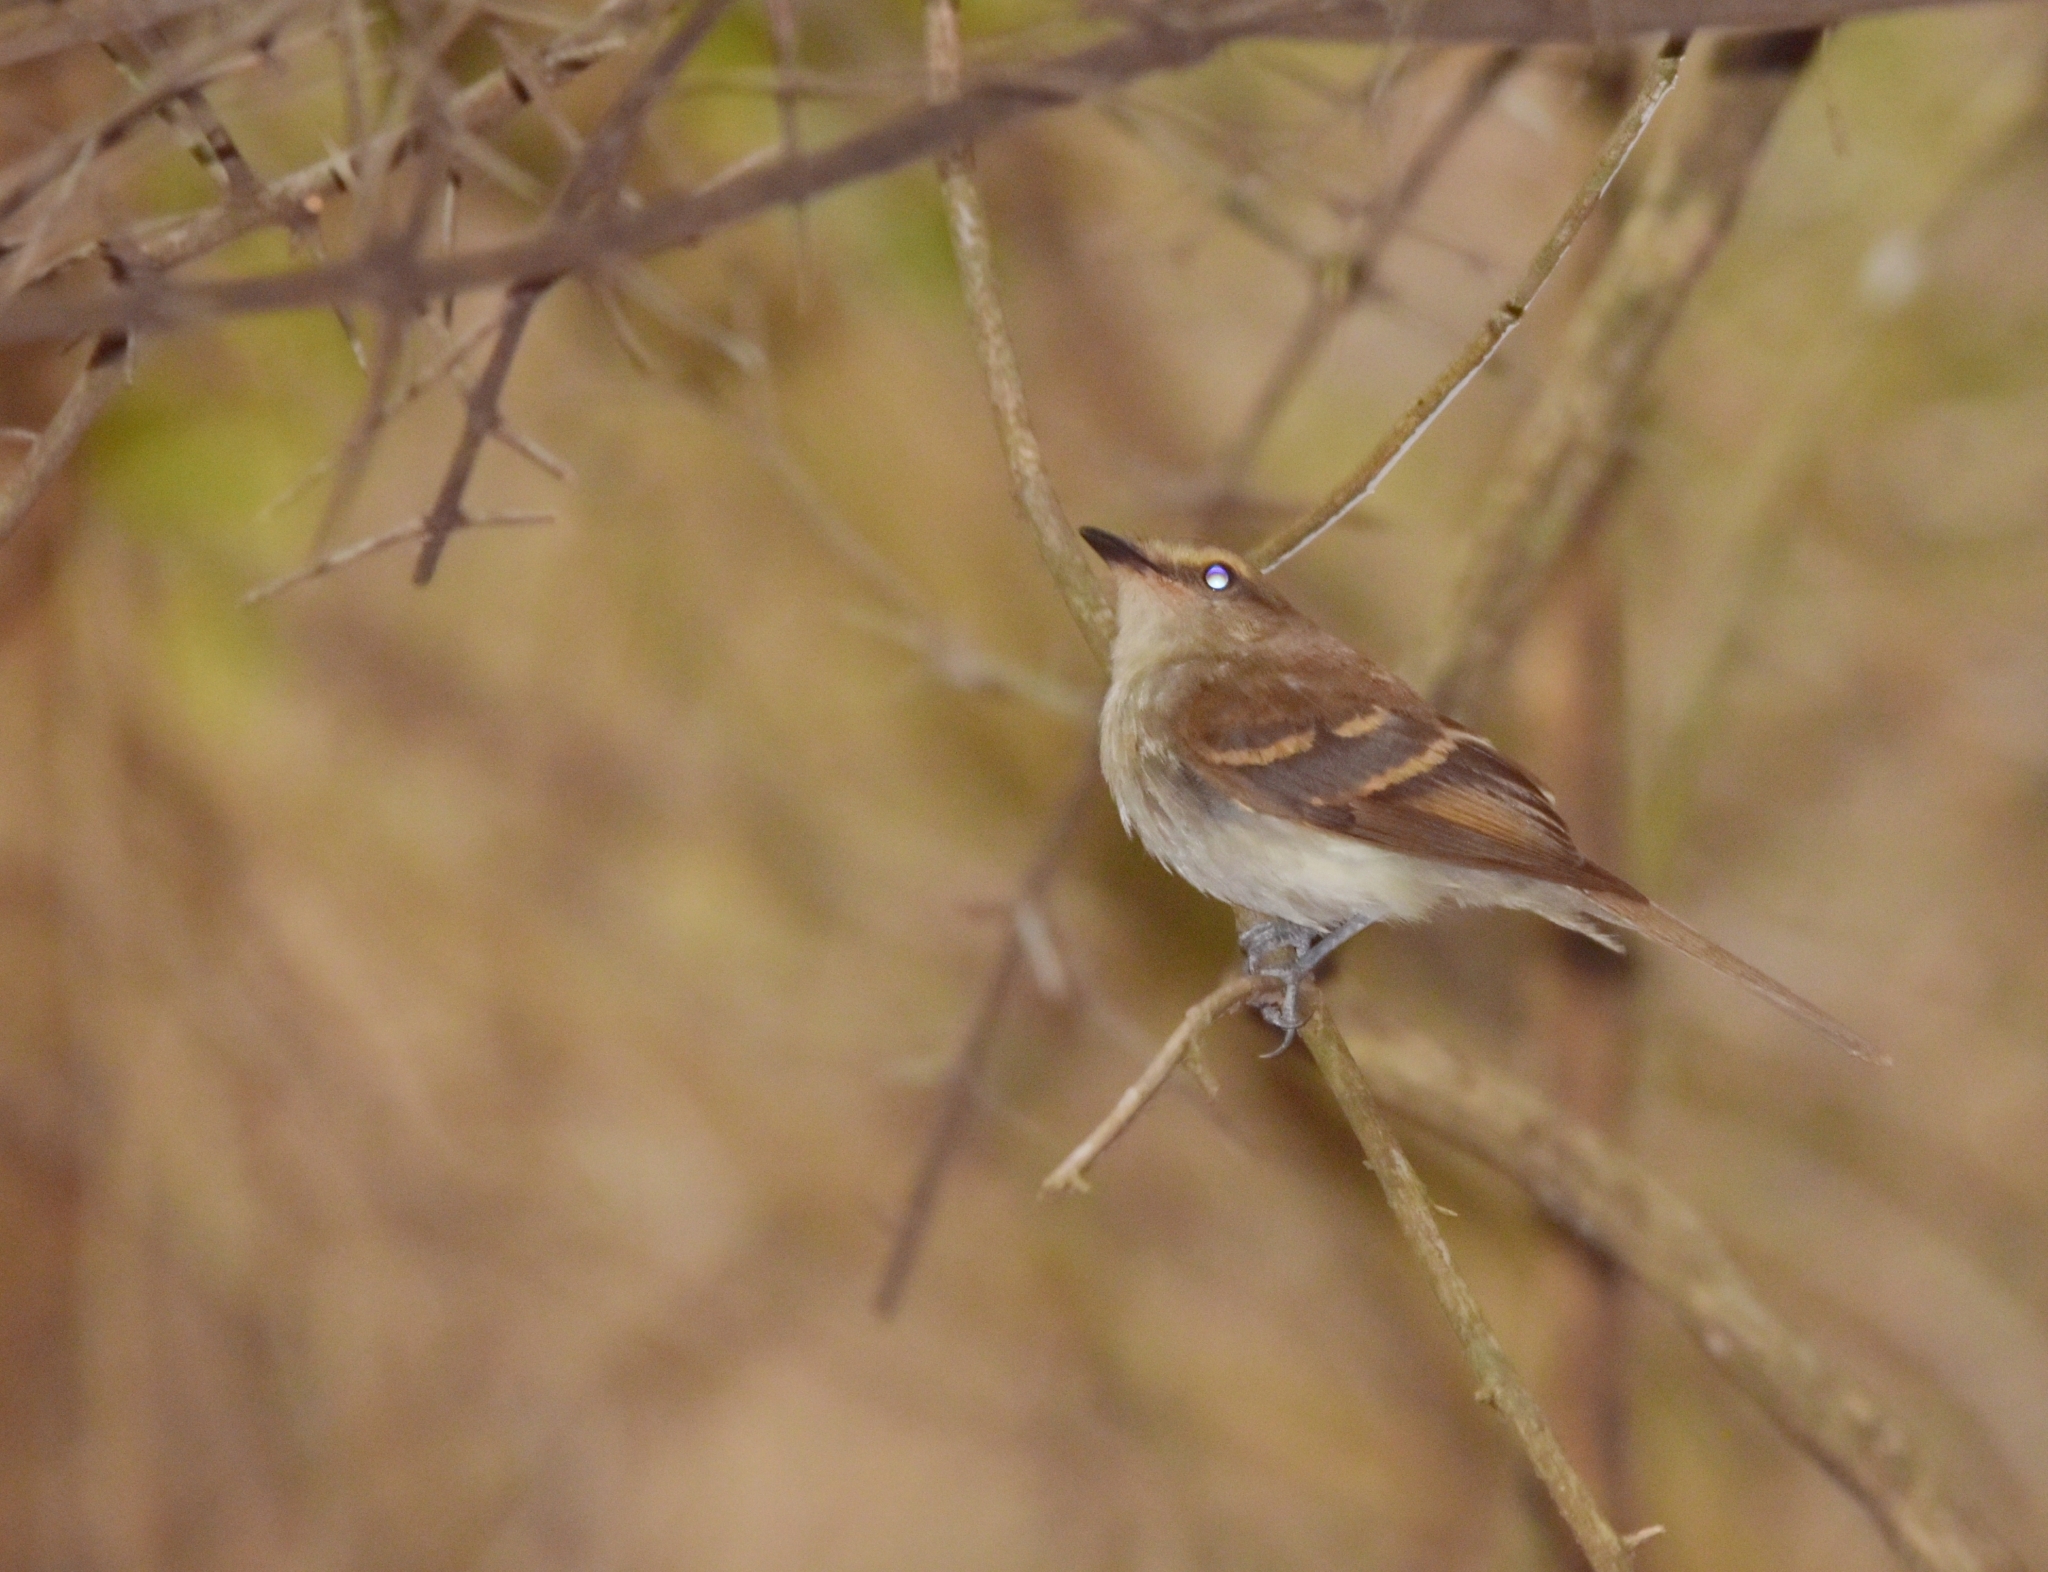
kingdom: Animalia
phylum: Chordata
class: Aves
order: Passeriformes
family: Tyrannidae
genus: Cnemotriccus
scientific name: Cnemotriccus fuscatus
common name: Fuscous flycatcher
